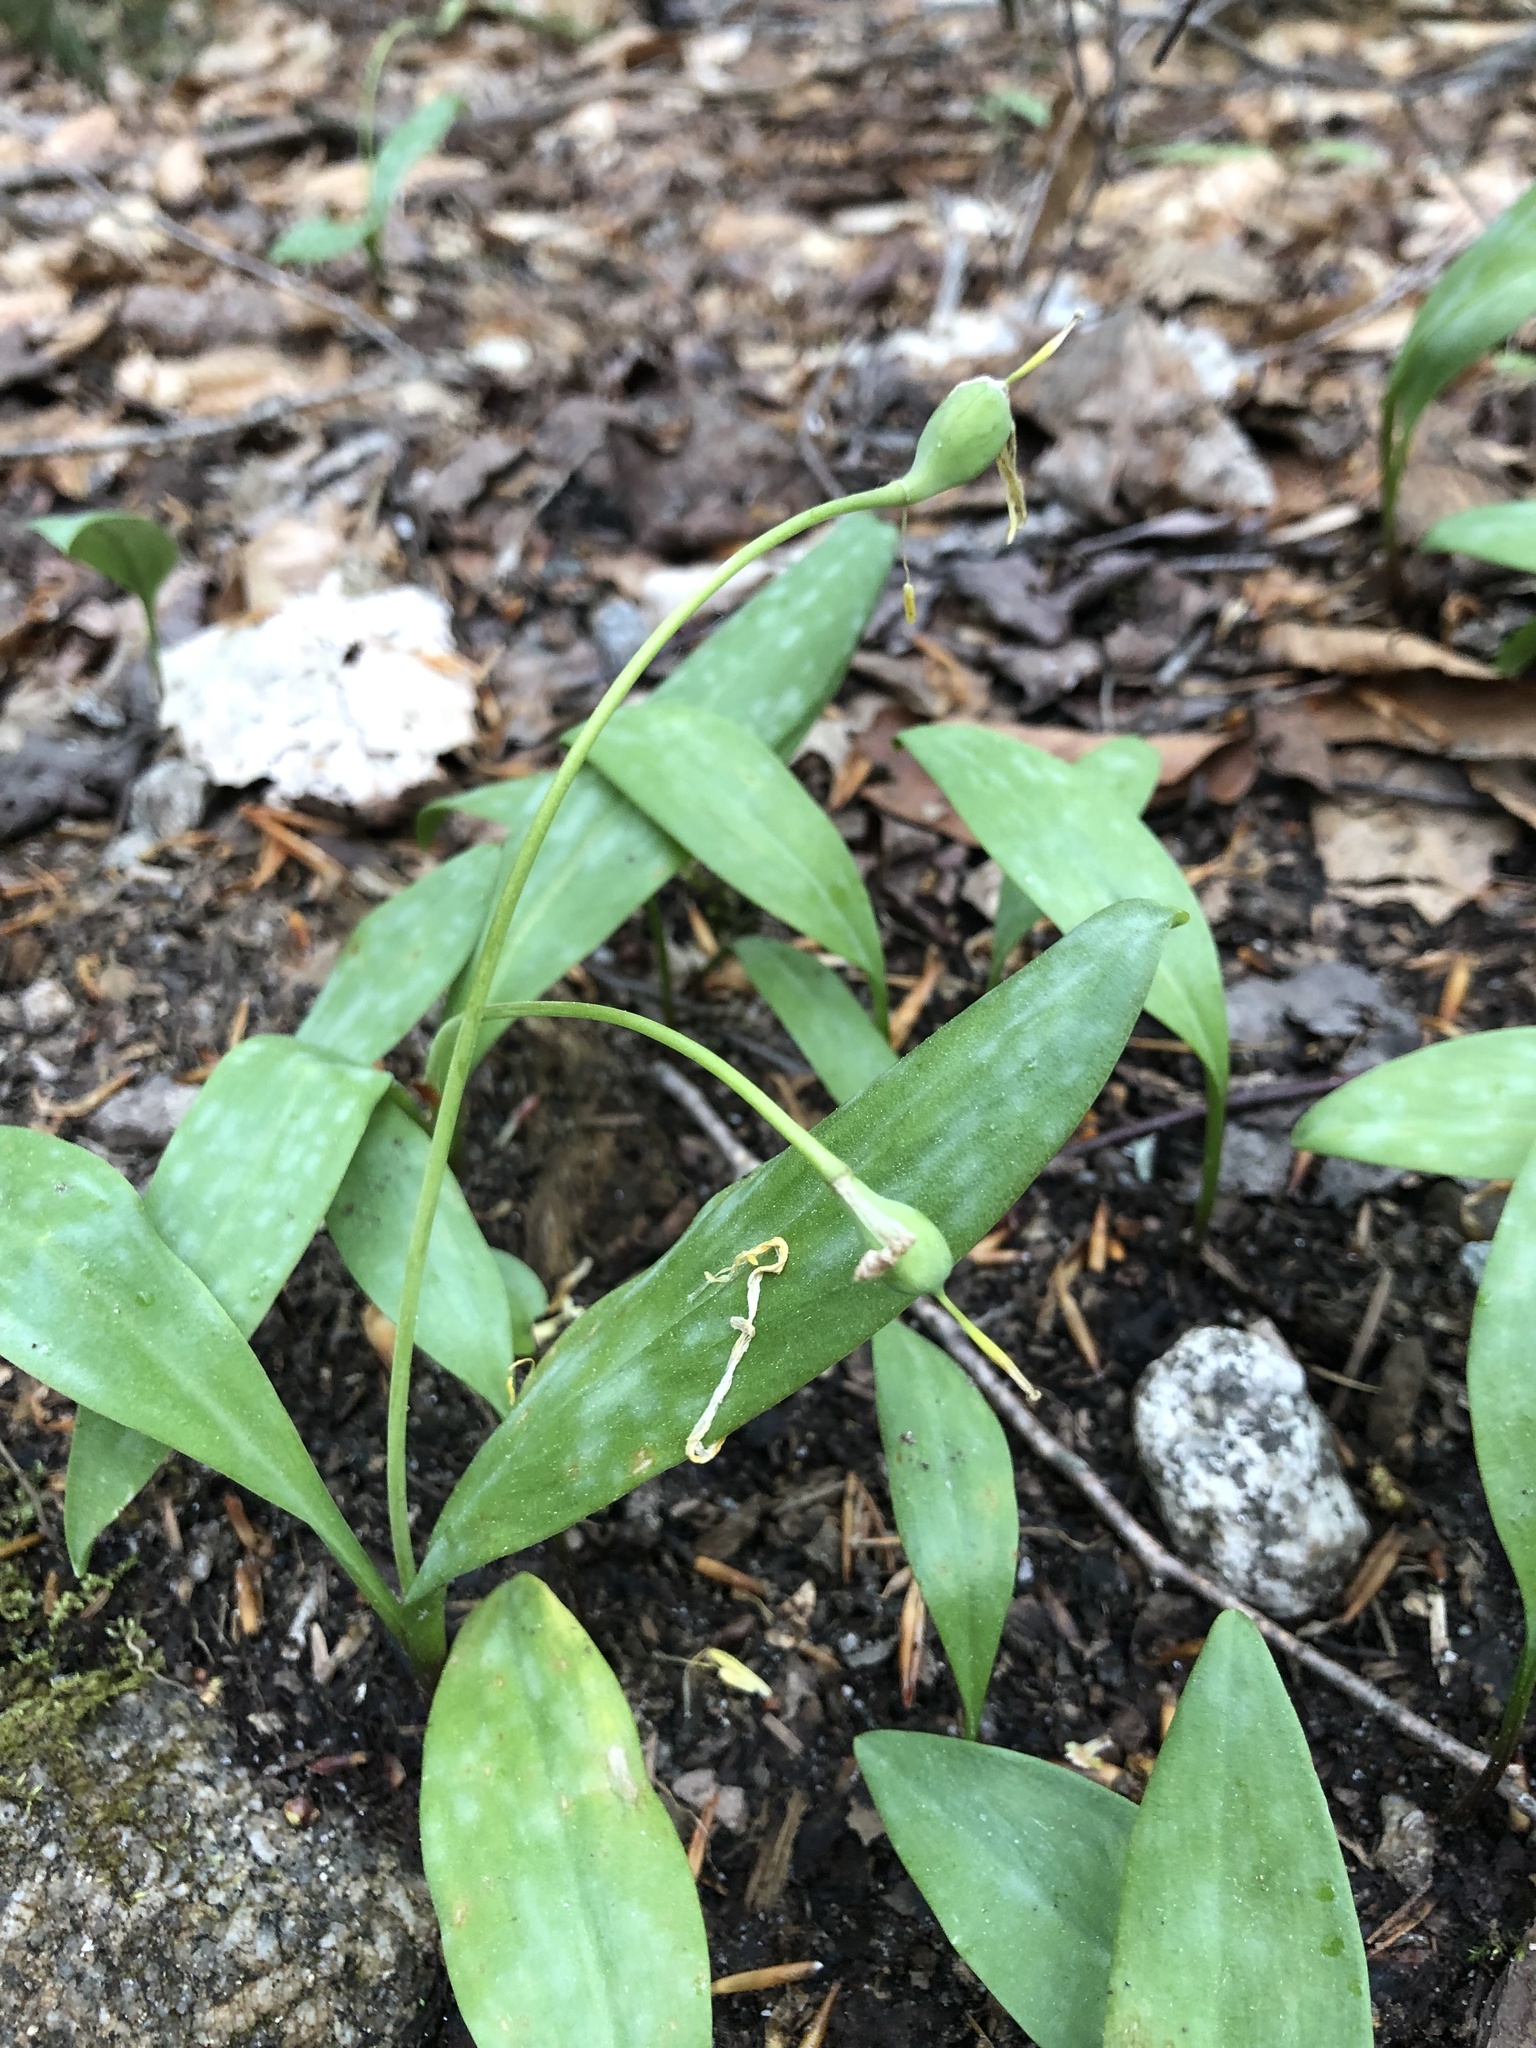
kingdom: Plantae
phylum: Tracheophyta
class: Liliopsida
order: Liliales
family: Liliaceae
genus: Erythronium
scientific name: Erythronium americanum
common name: Yellow adder's-tongue
